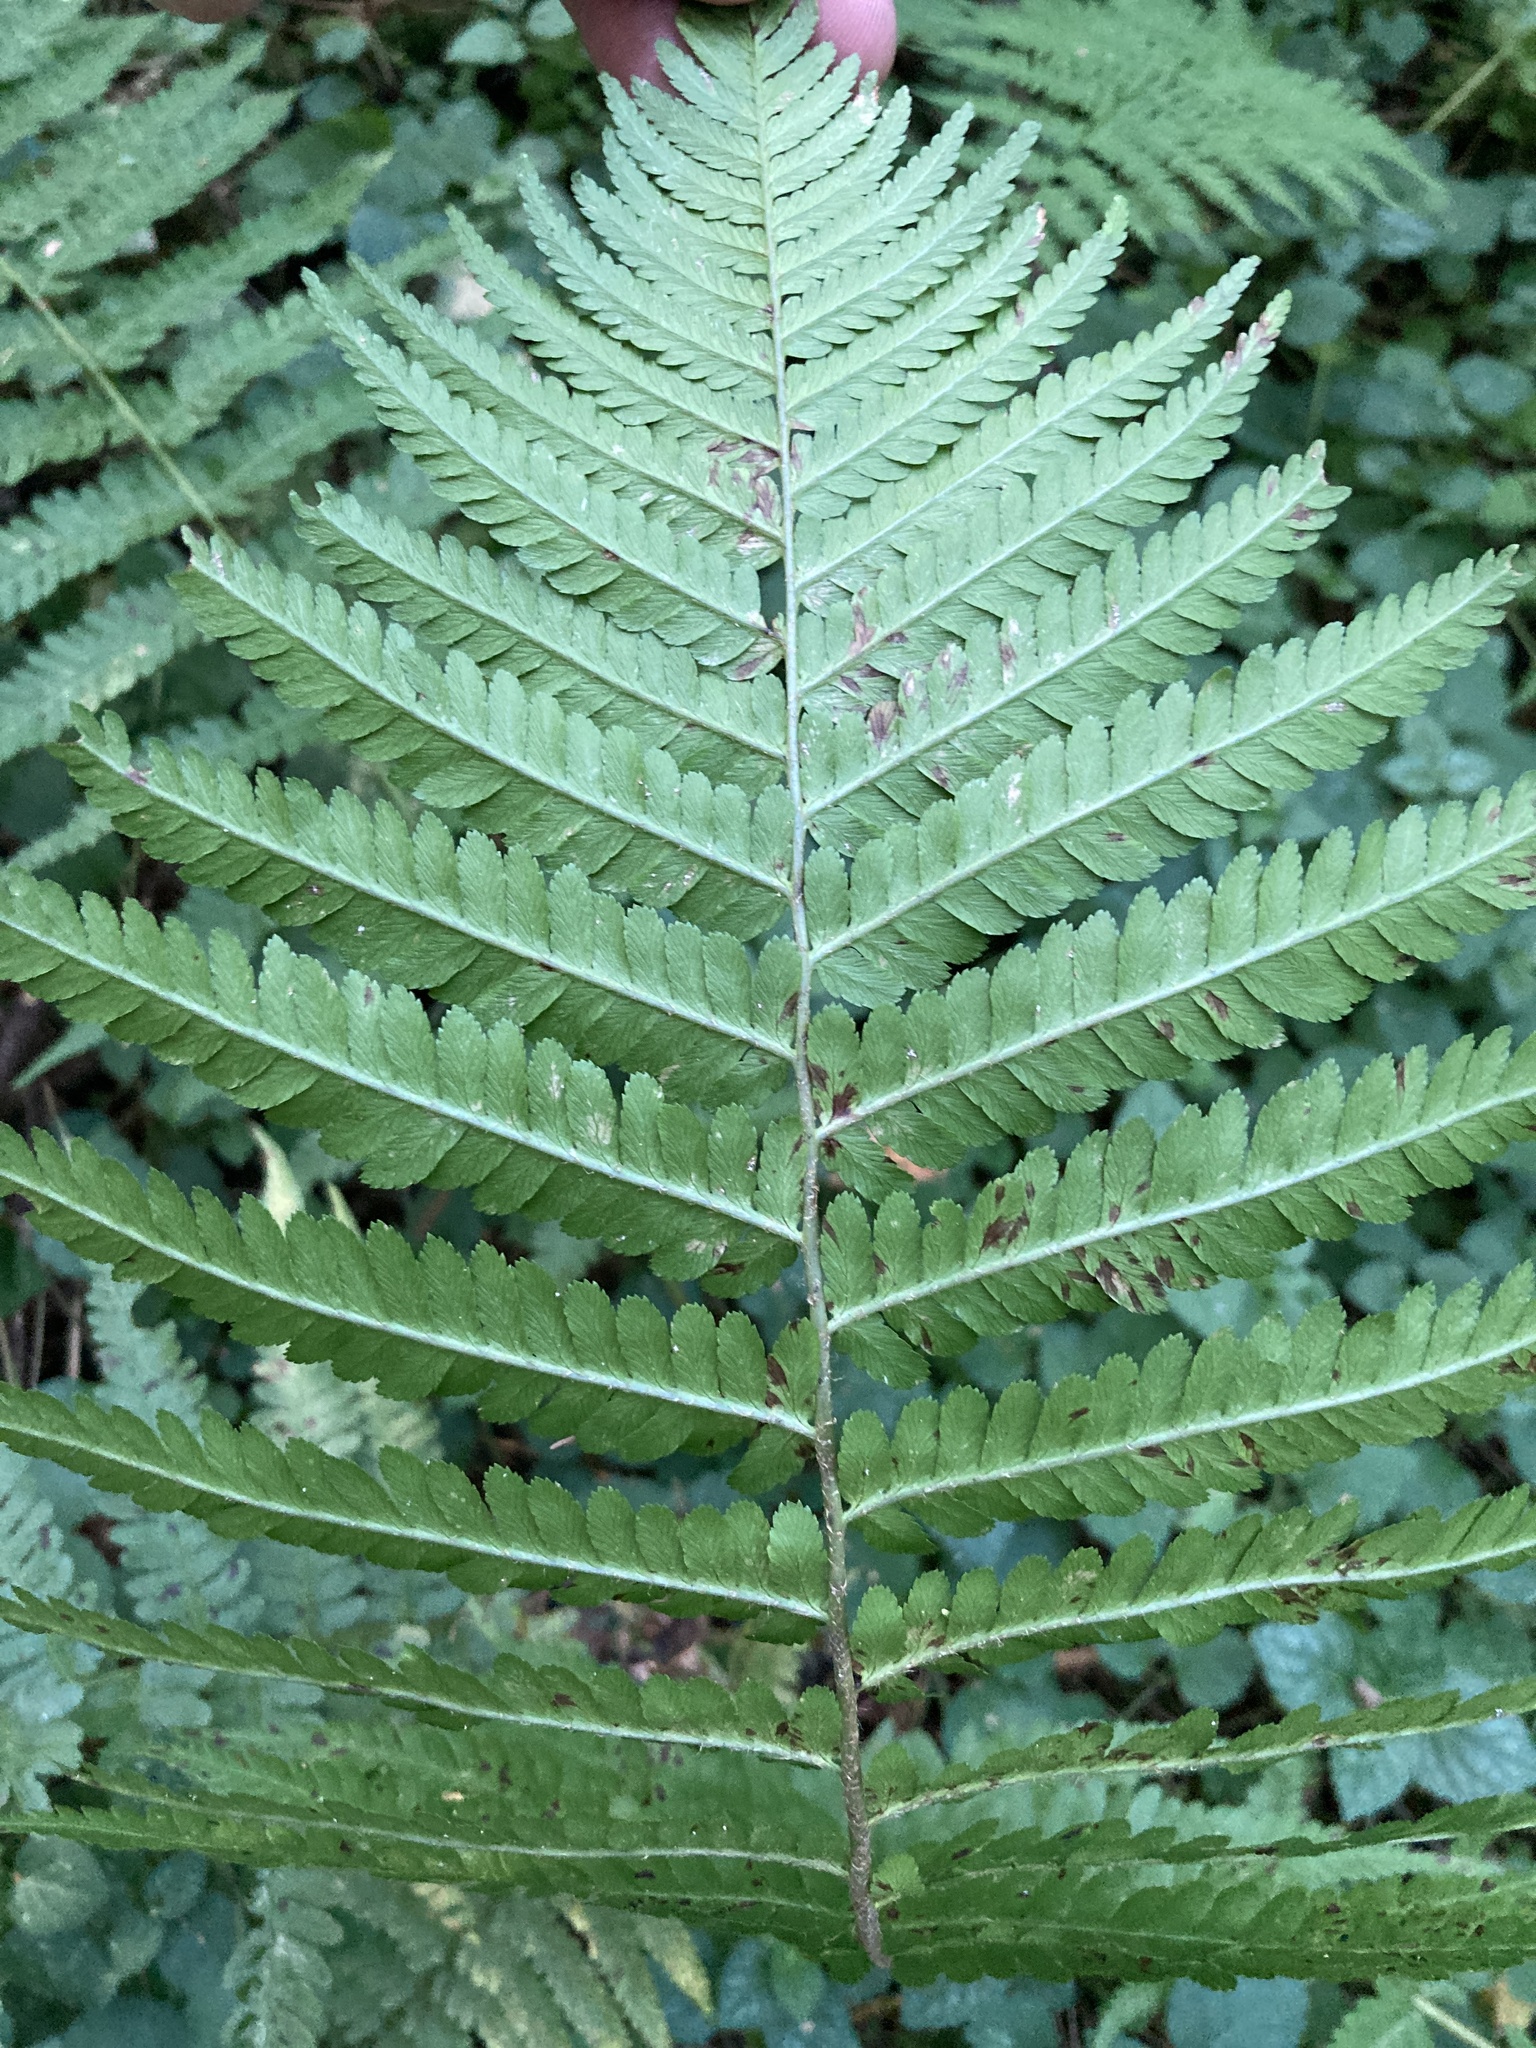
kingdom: Plantae
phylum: Tracheophyta
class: Polypodiopsida
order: Polypodiales
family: Dryopteridaceae
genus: Dryopteris
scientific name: Dryopteris filix-mas
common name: Male fern
